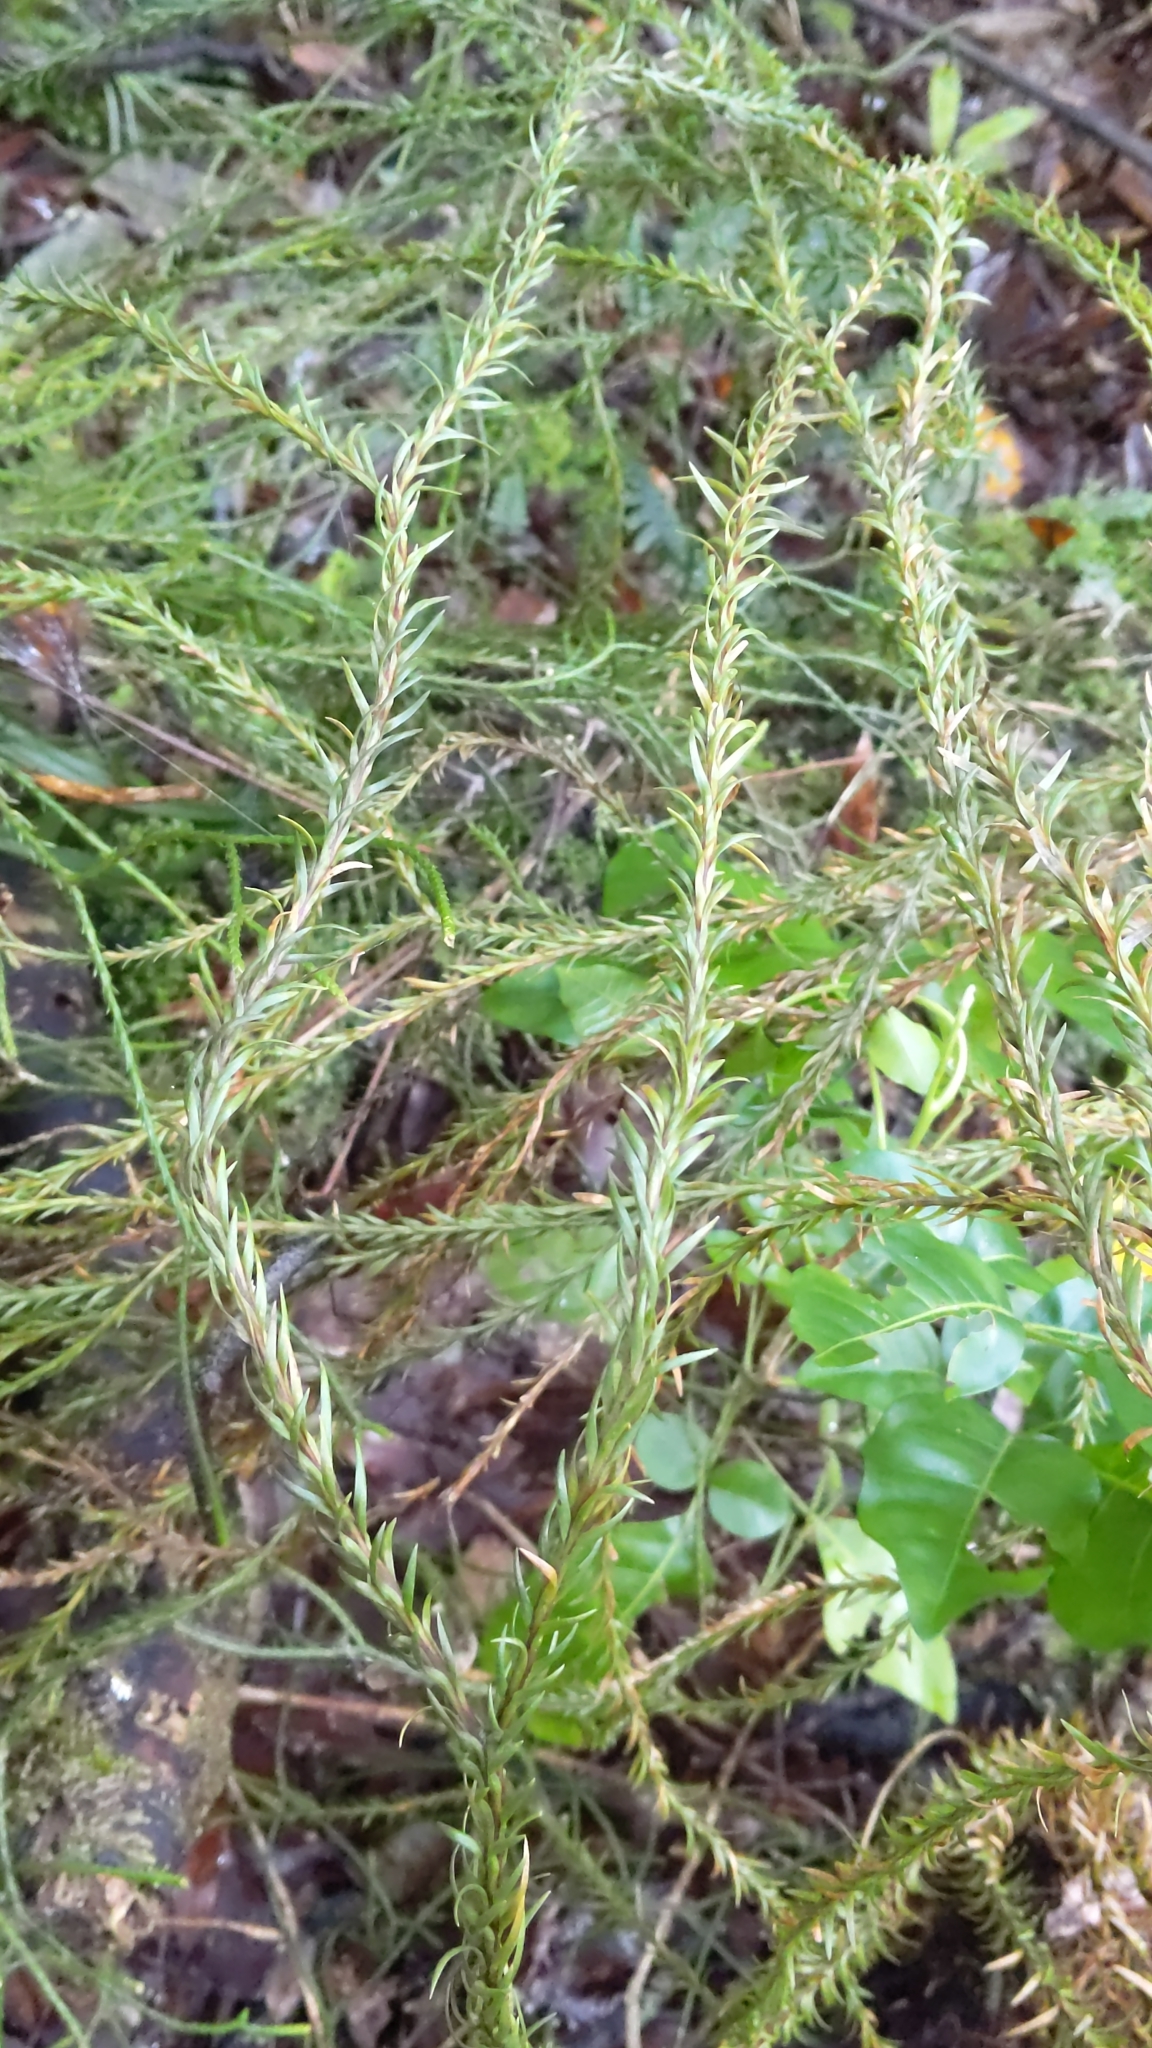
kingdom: Plantae
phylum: Tracheophyta
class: Lycopodiopsida
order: Lycopodiales
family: Lycopodiaceae
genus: Phlegmariurus
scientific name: Phlegmariurus billardierei
